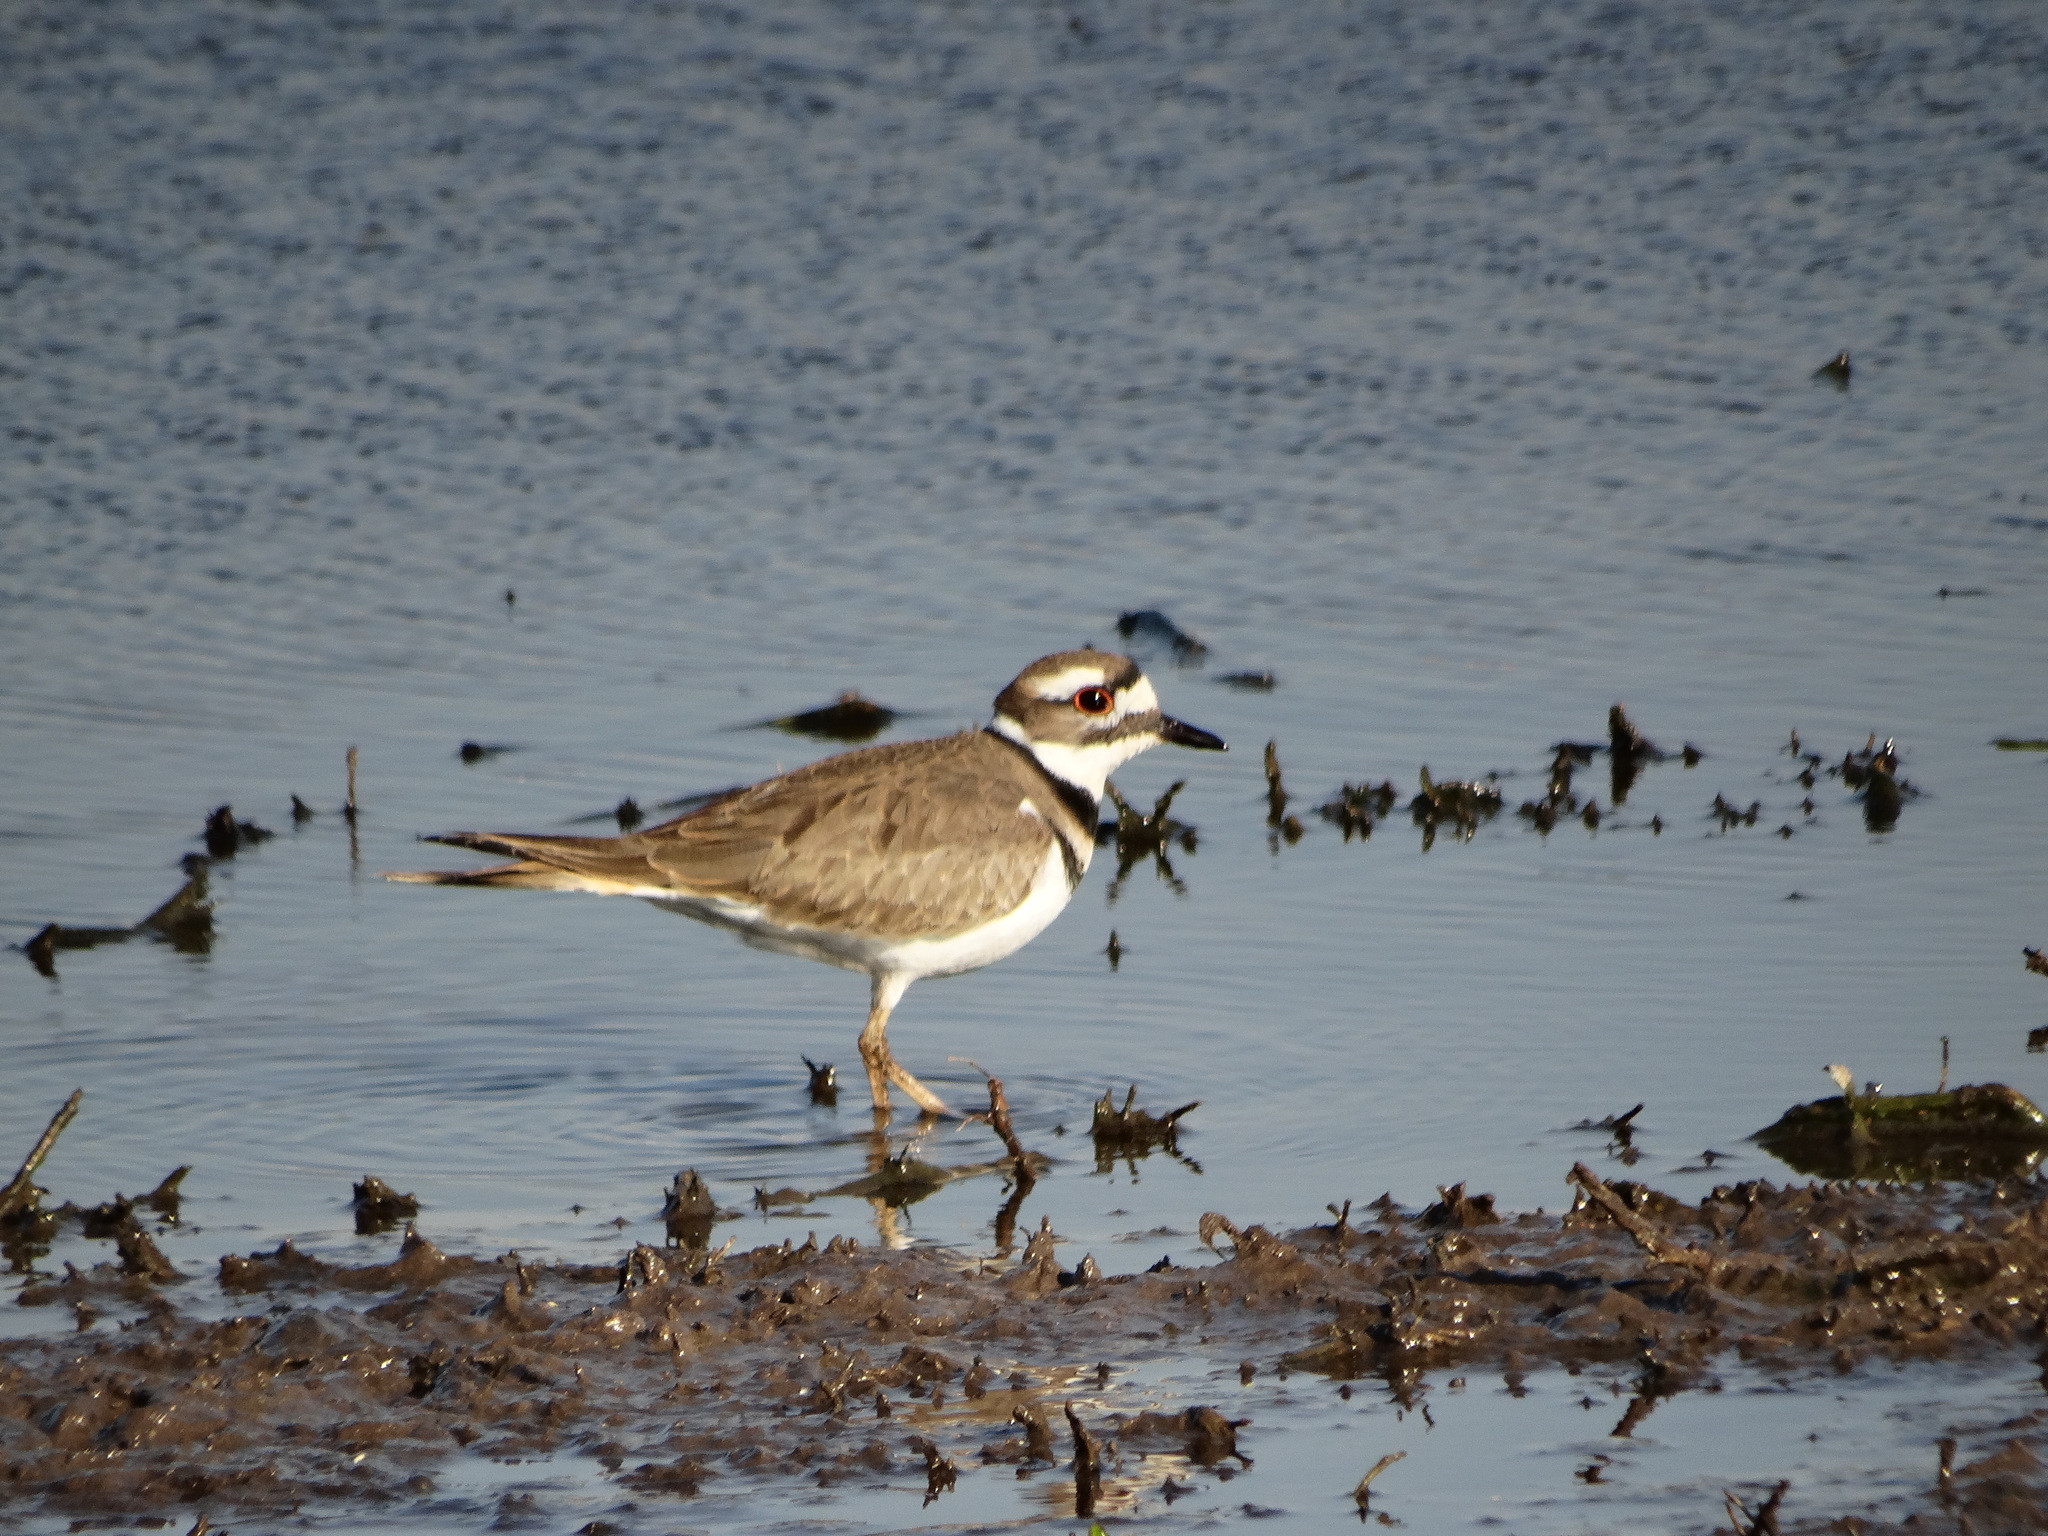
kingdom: Animalia
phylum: Chordata
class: Aves
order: Charadriiformes
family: Charadriidae
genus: Charadrius
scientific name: Charadrius vociferus
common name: Killdeer
